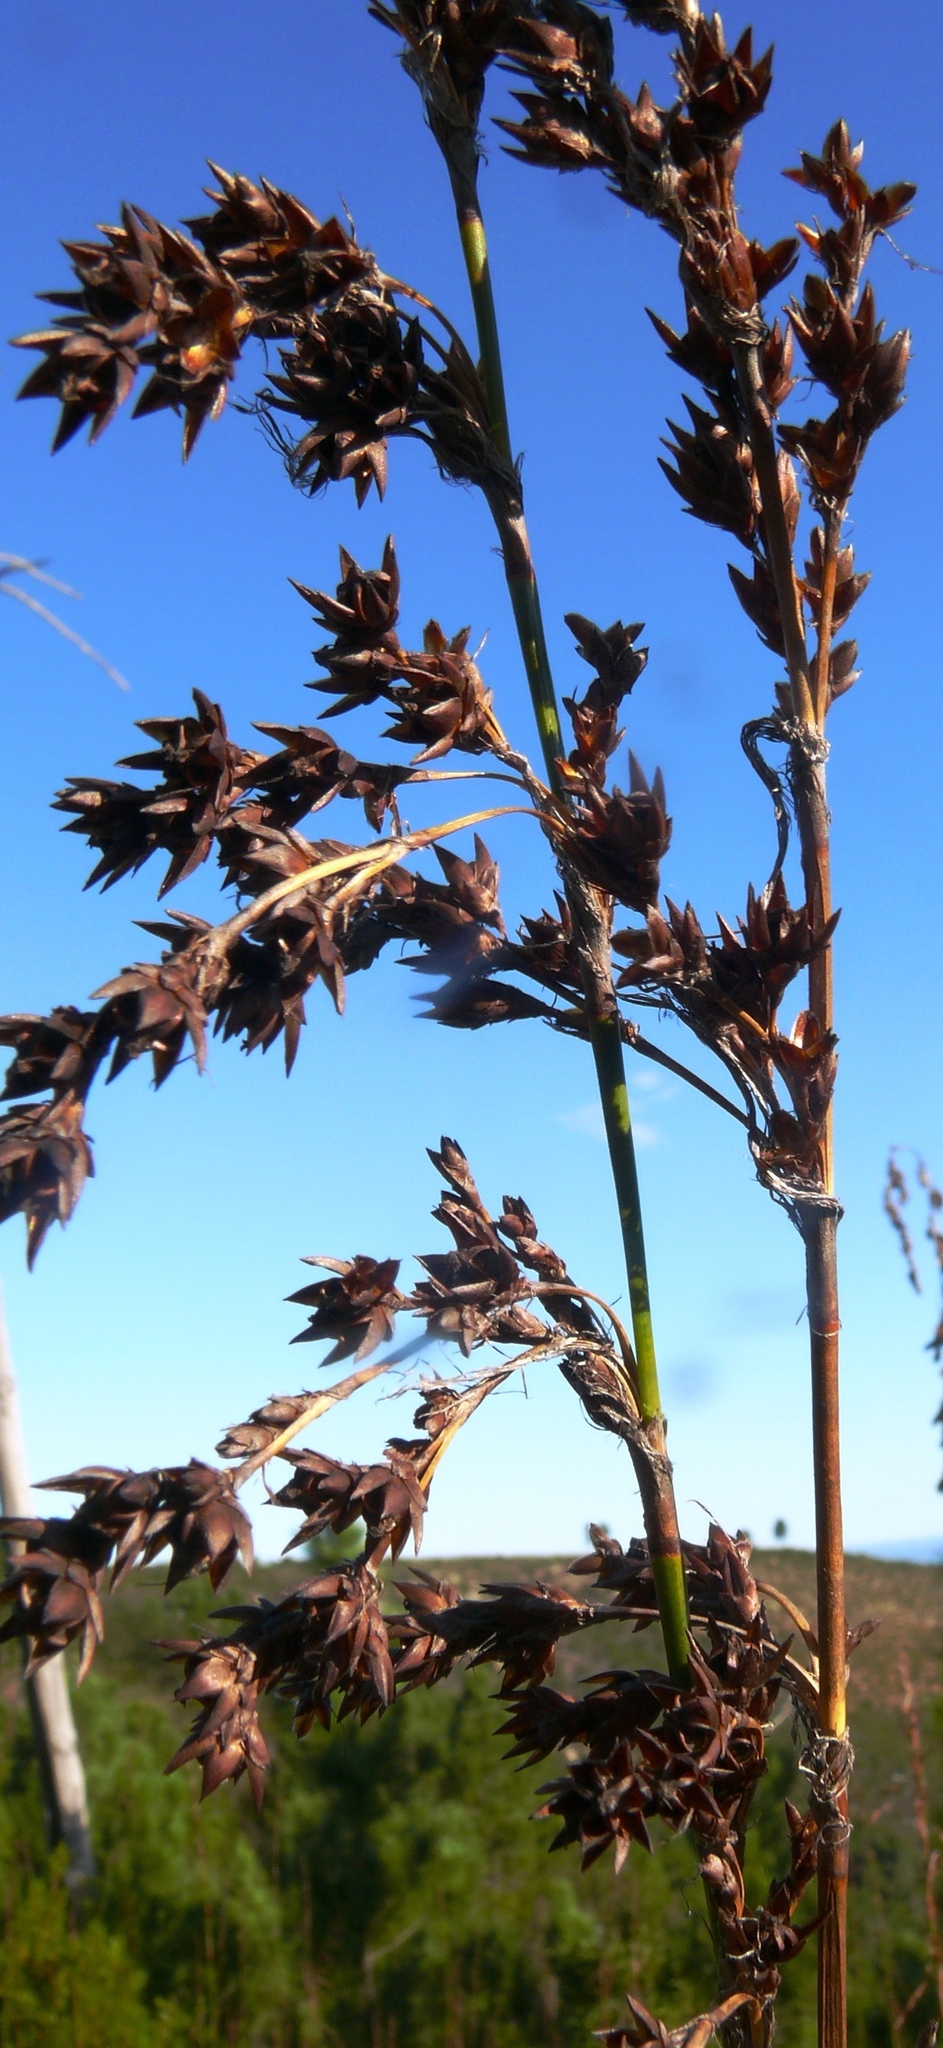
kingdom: Plantae
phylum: Tracheophyta
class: Liliopsida
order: Poales
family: Restionaceae
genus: Rhodocoma
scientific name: Rhodocoma gigantea
